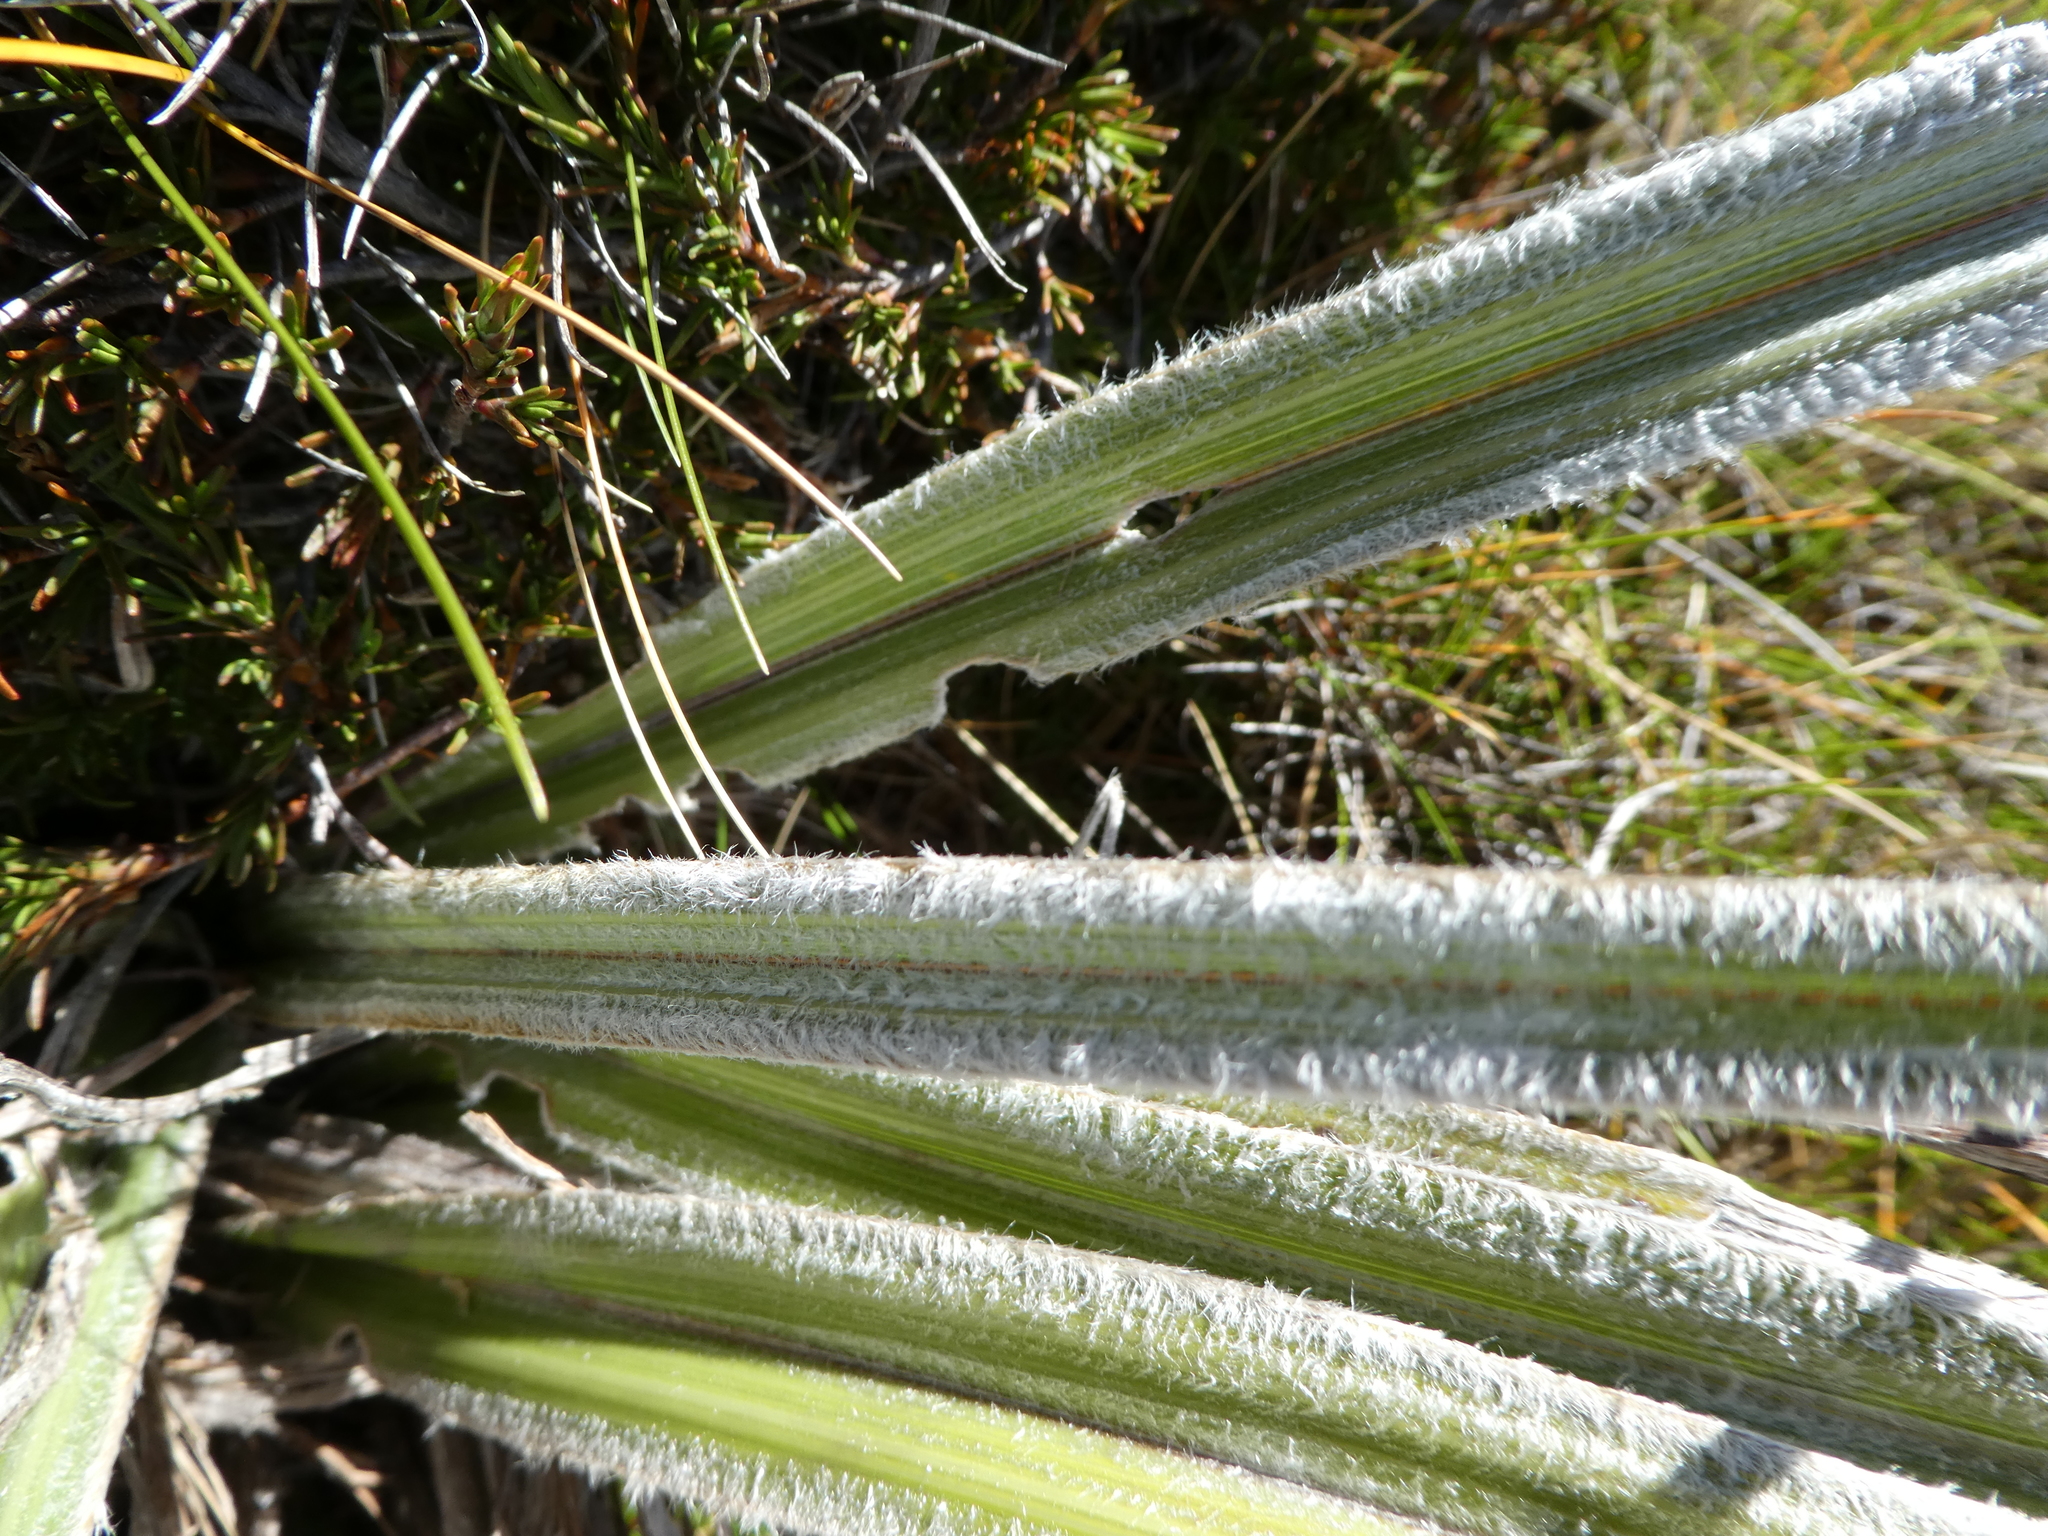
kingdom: Plantae
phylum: Tracheophyta
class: Liliopsida
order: Asparagales
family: Asteliaceae
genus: Astelia
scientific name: Astelia nervosa
